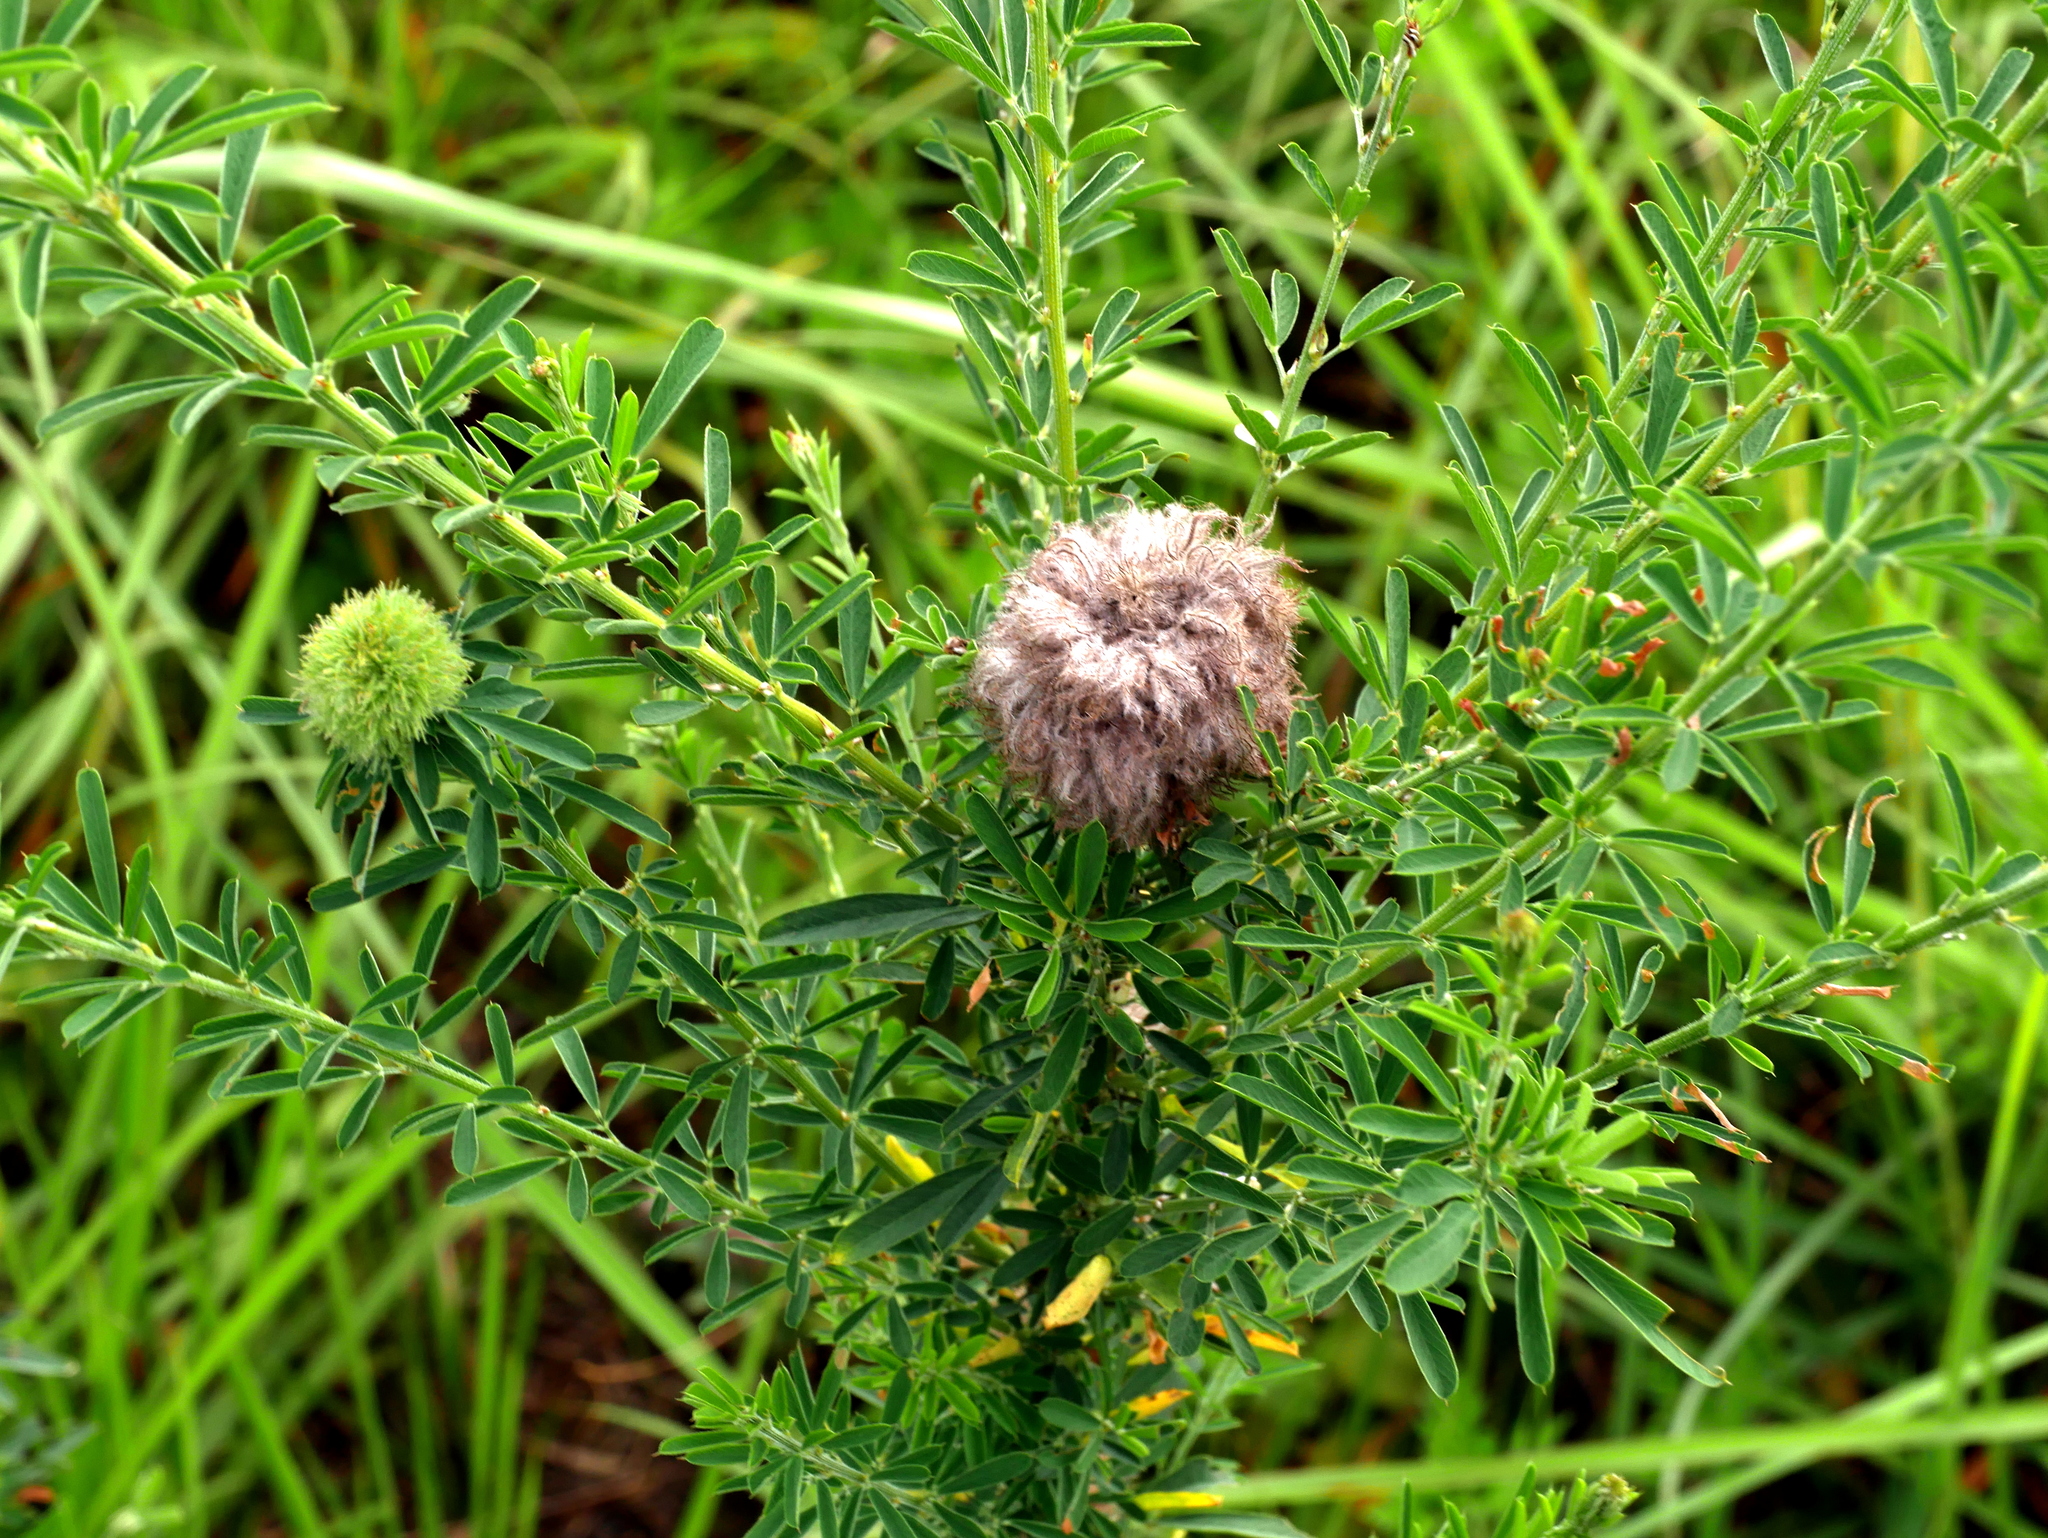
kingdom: Plantae
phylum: Tracheophyta
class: Magnoliopsida
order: Fabales
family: Fabaceae
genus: Lespedeza
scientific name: Lespedeza cuneata
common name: Chinese bush-clover
